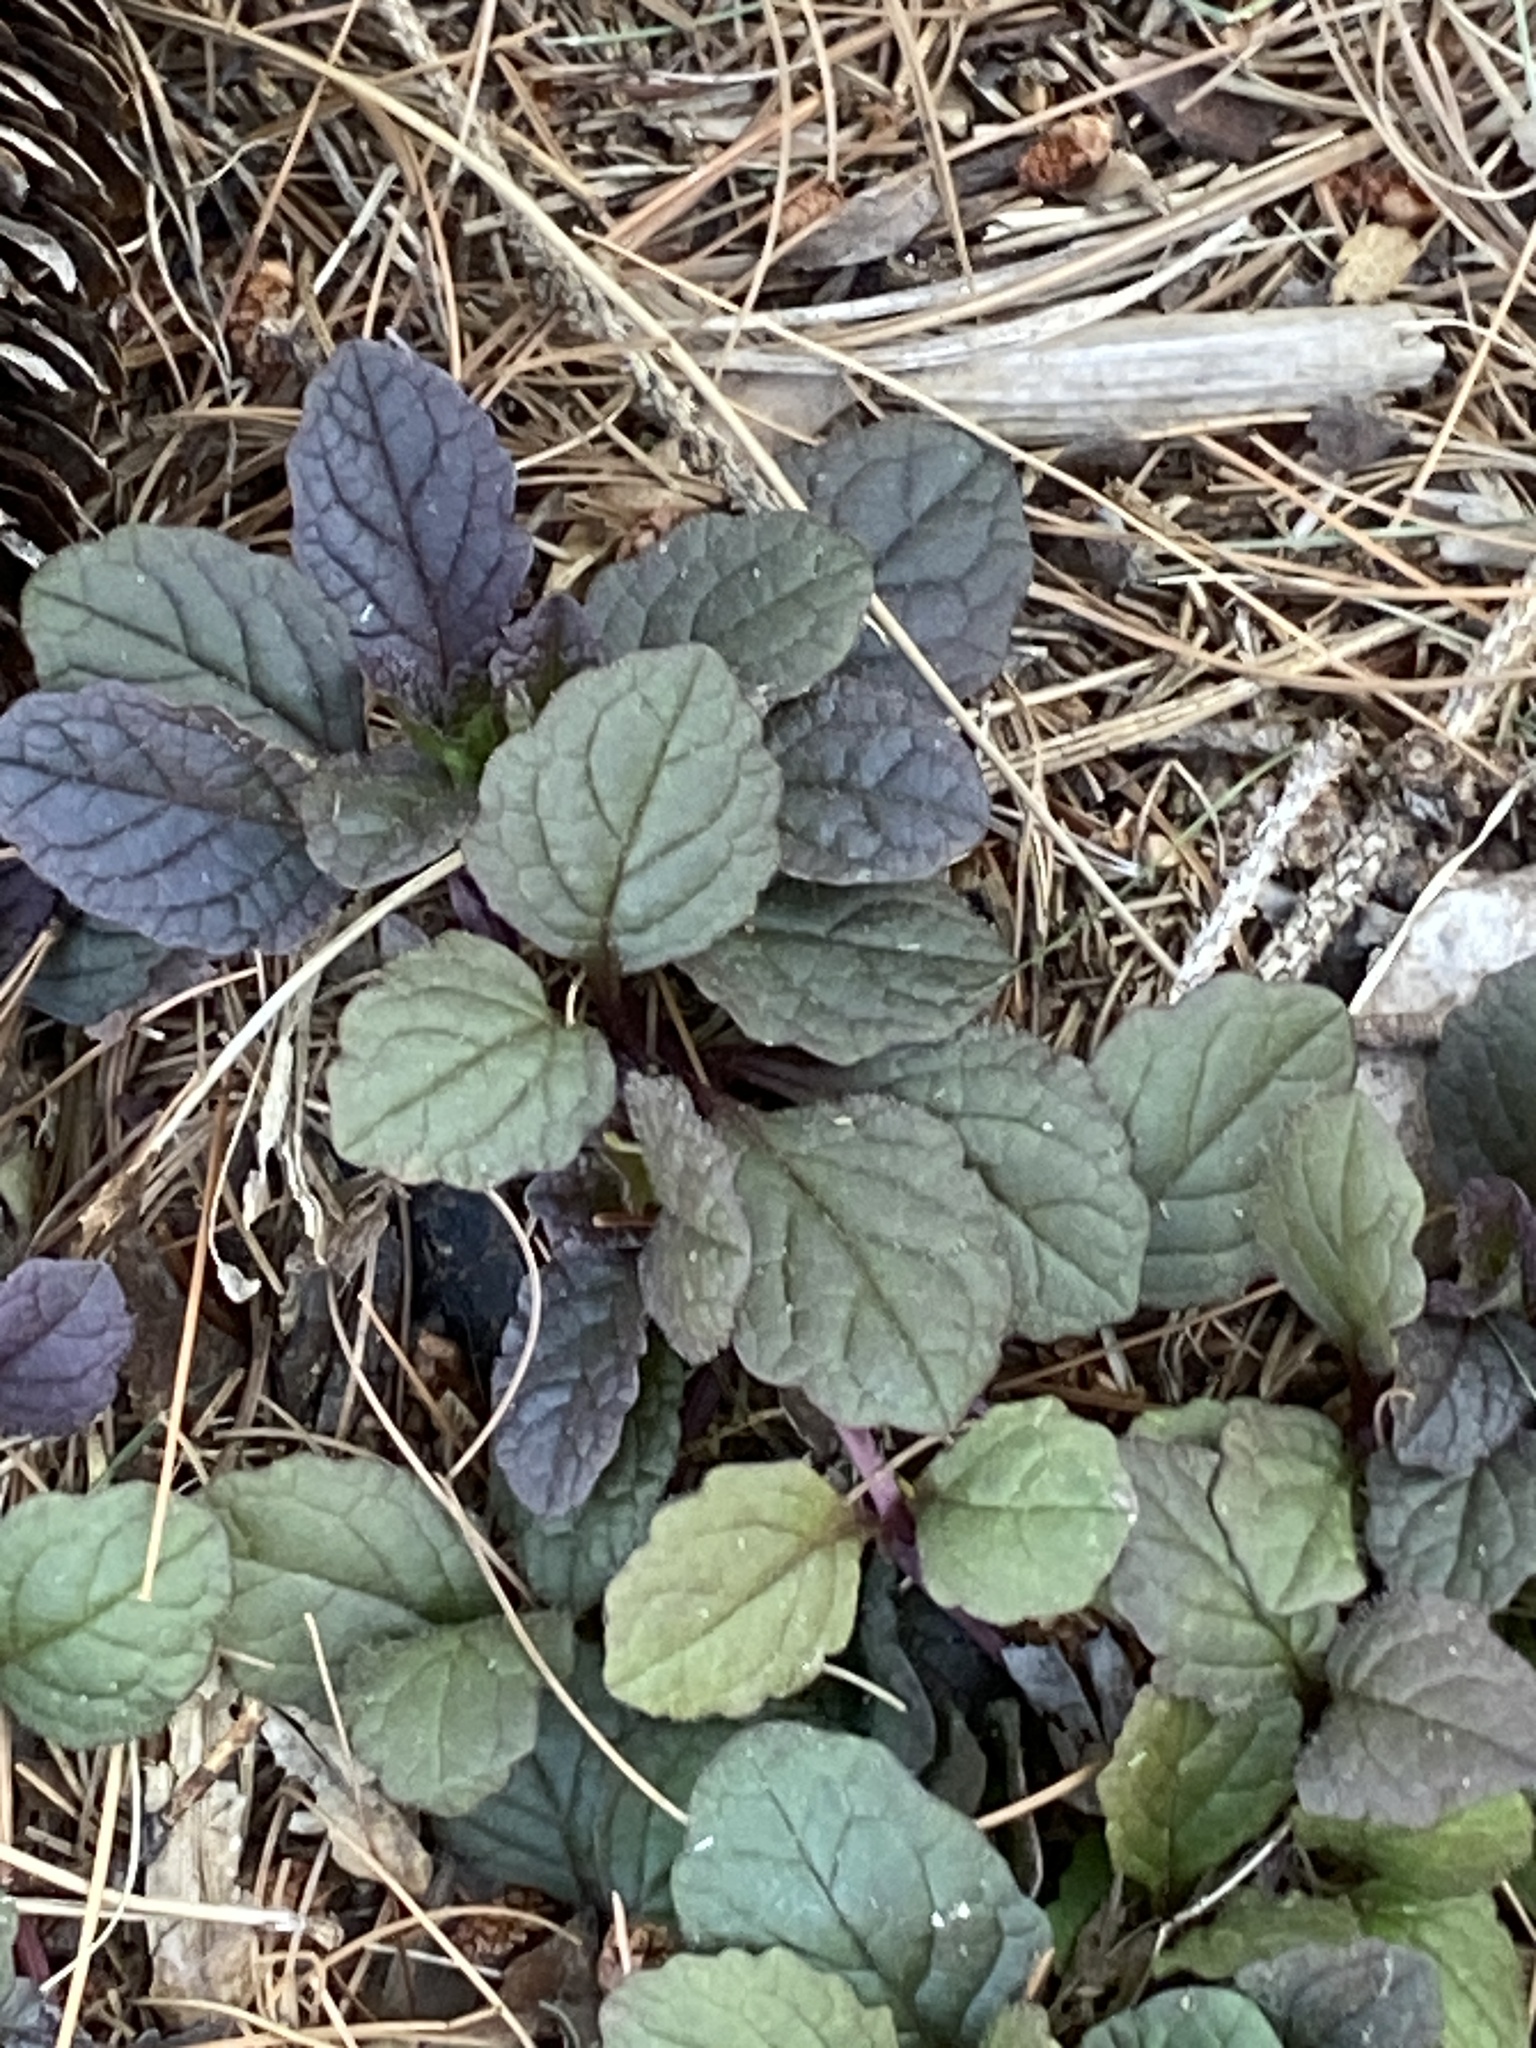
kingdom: Plantae
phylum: Tracheophyta
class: Magnoliopsida
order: Lamiales
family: Lamiaceae
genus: Ajuga
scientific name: Ajuga reptans
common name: Bugle
